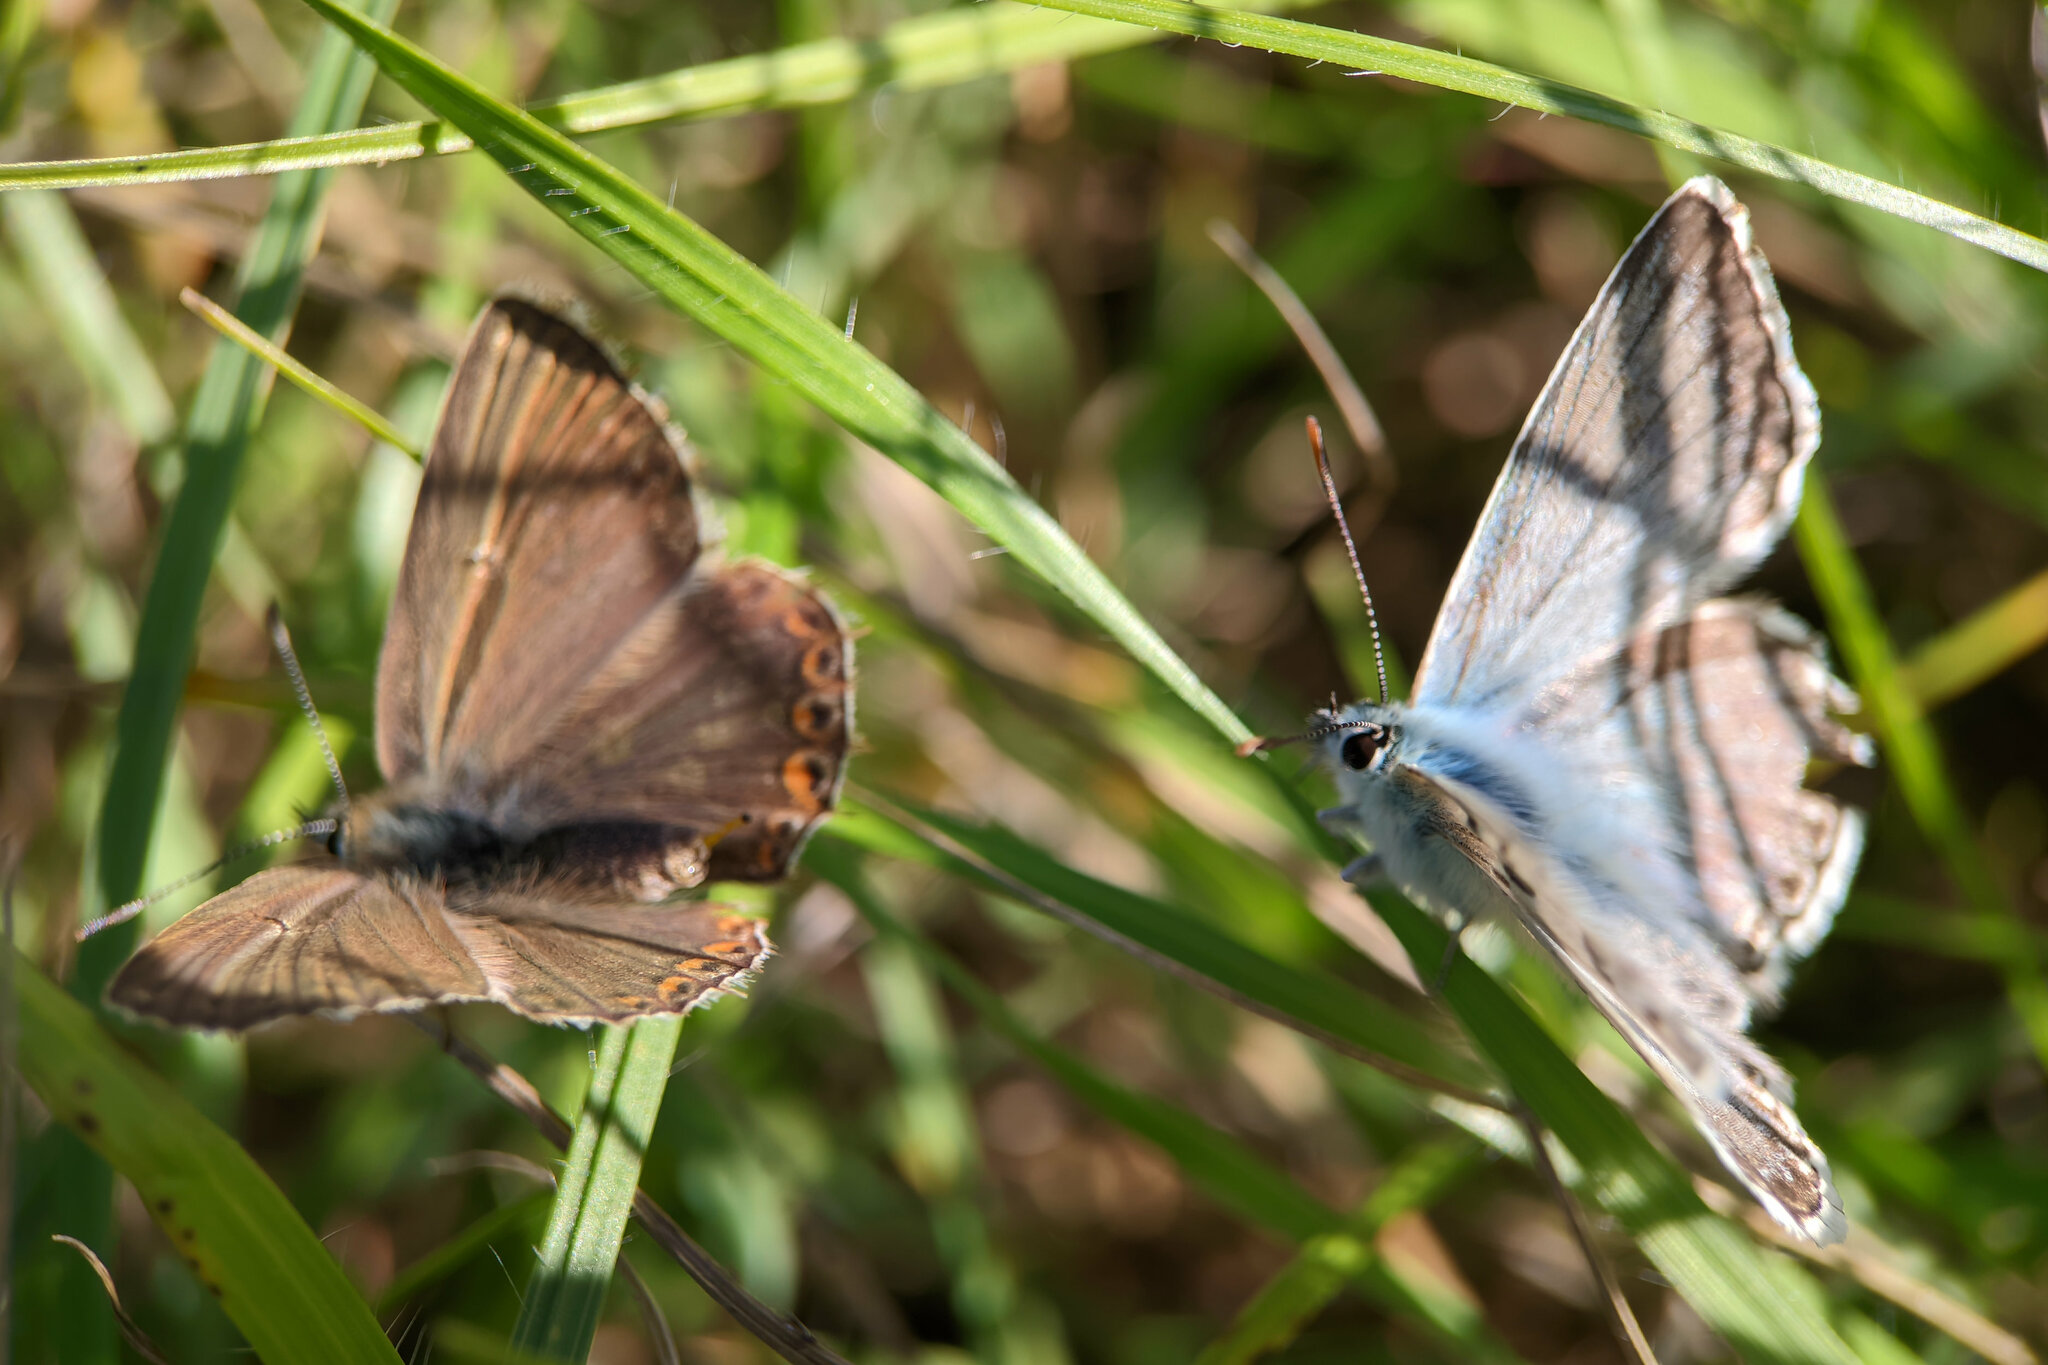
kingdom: Animalia
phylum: Arthropoda
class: Insecta
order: Lepidoptera
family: Lycaenidae
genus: Lysandra
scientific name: Lysandra coridon
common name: Chalkhill blue
